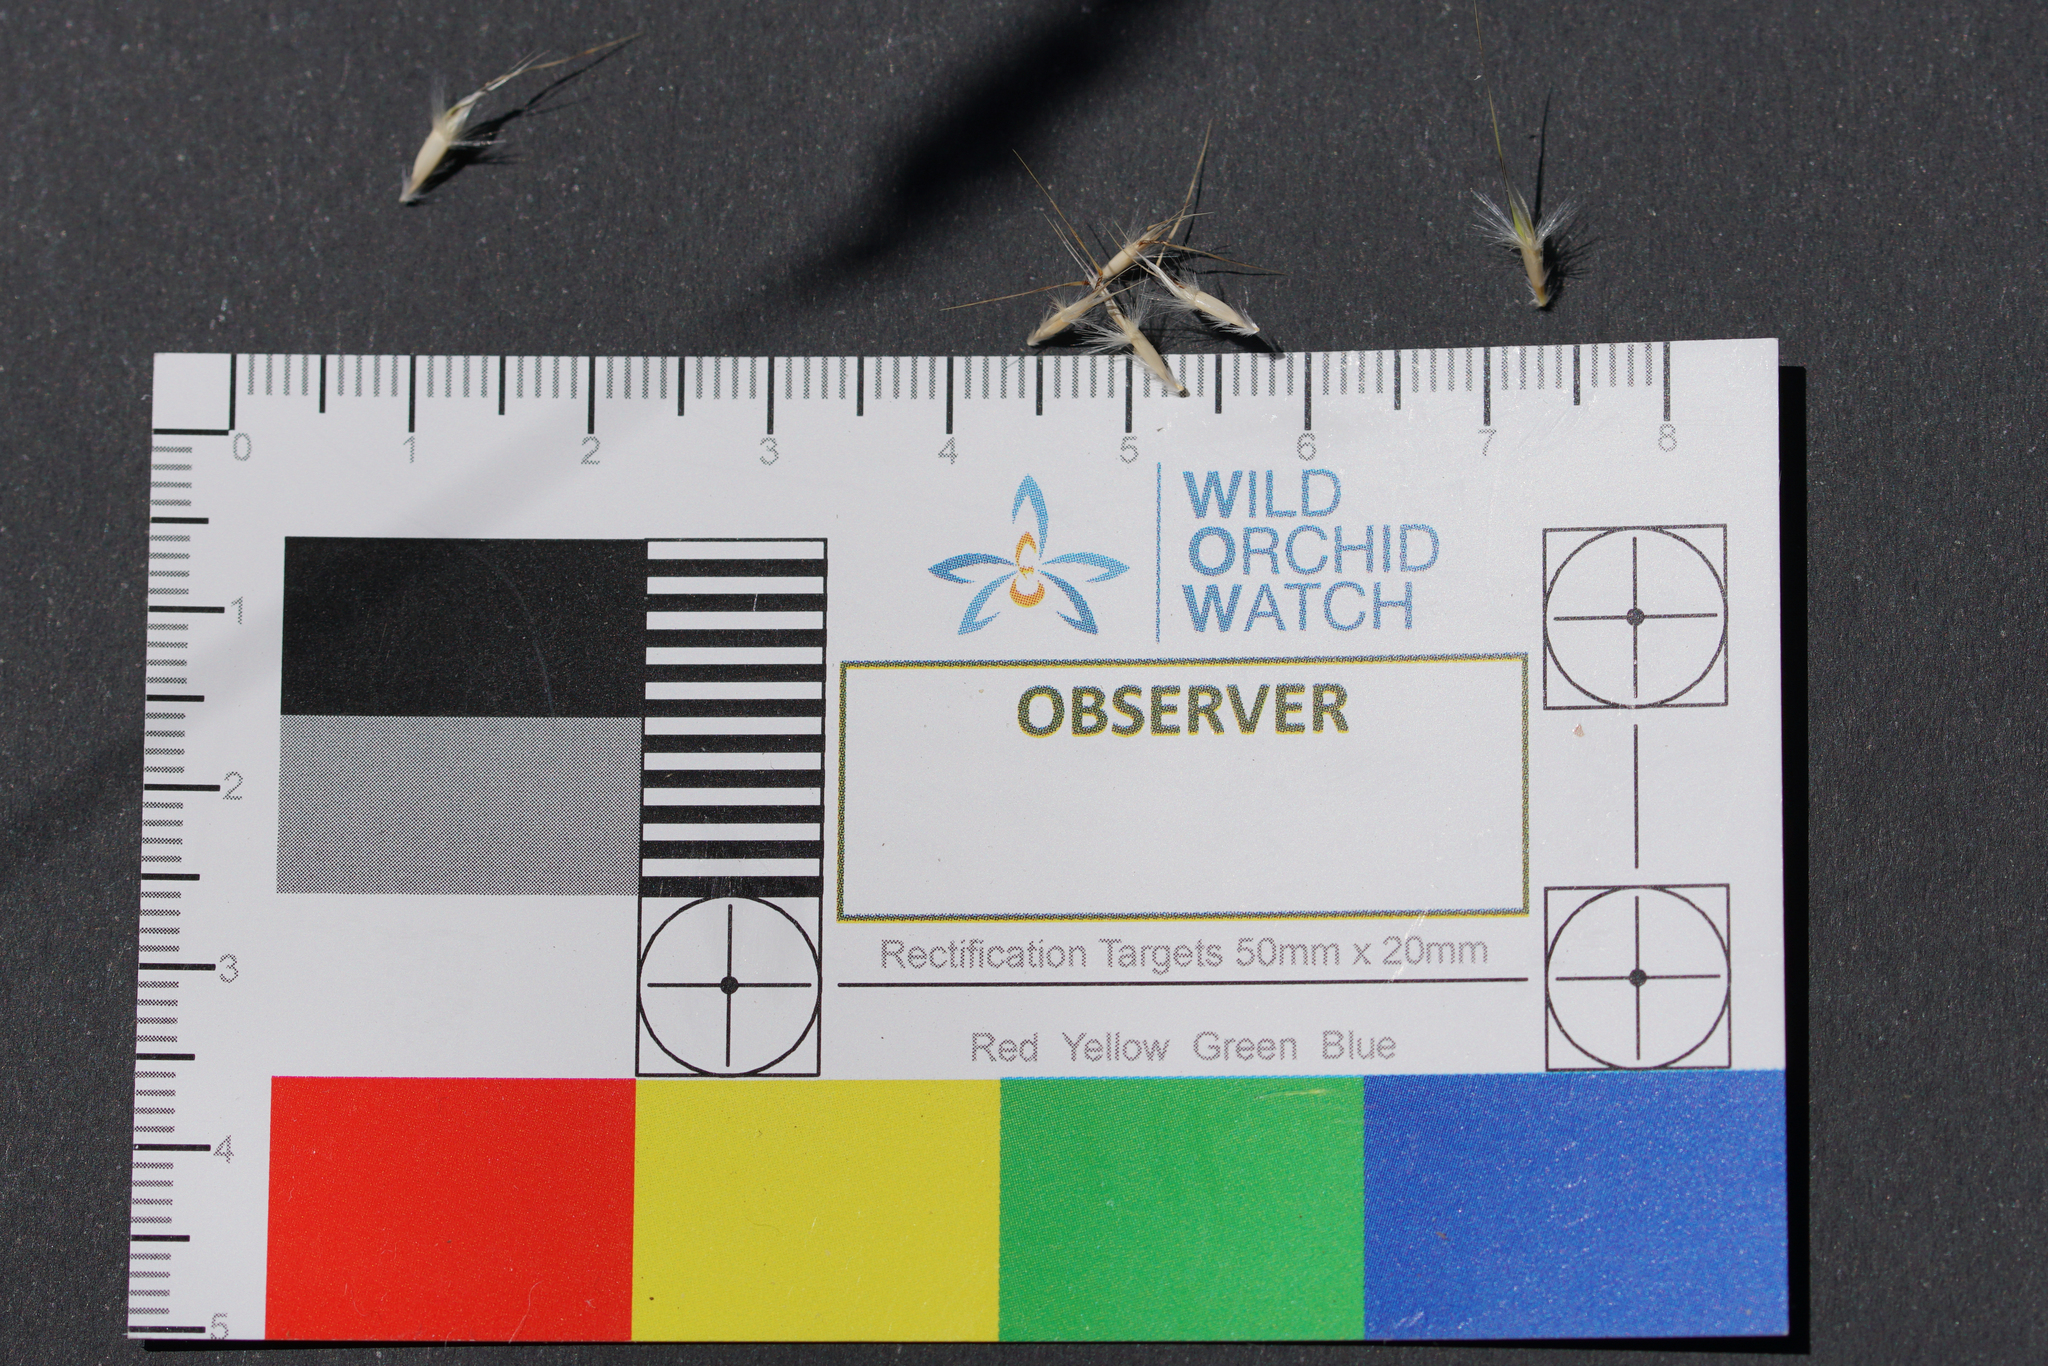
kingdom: Plantae
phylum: Tracheophyta
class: Liliopsida
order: Poales
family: Poaceae
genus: Rytidosperma
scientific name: Rytidosperma laeve
